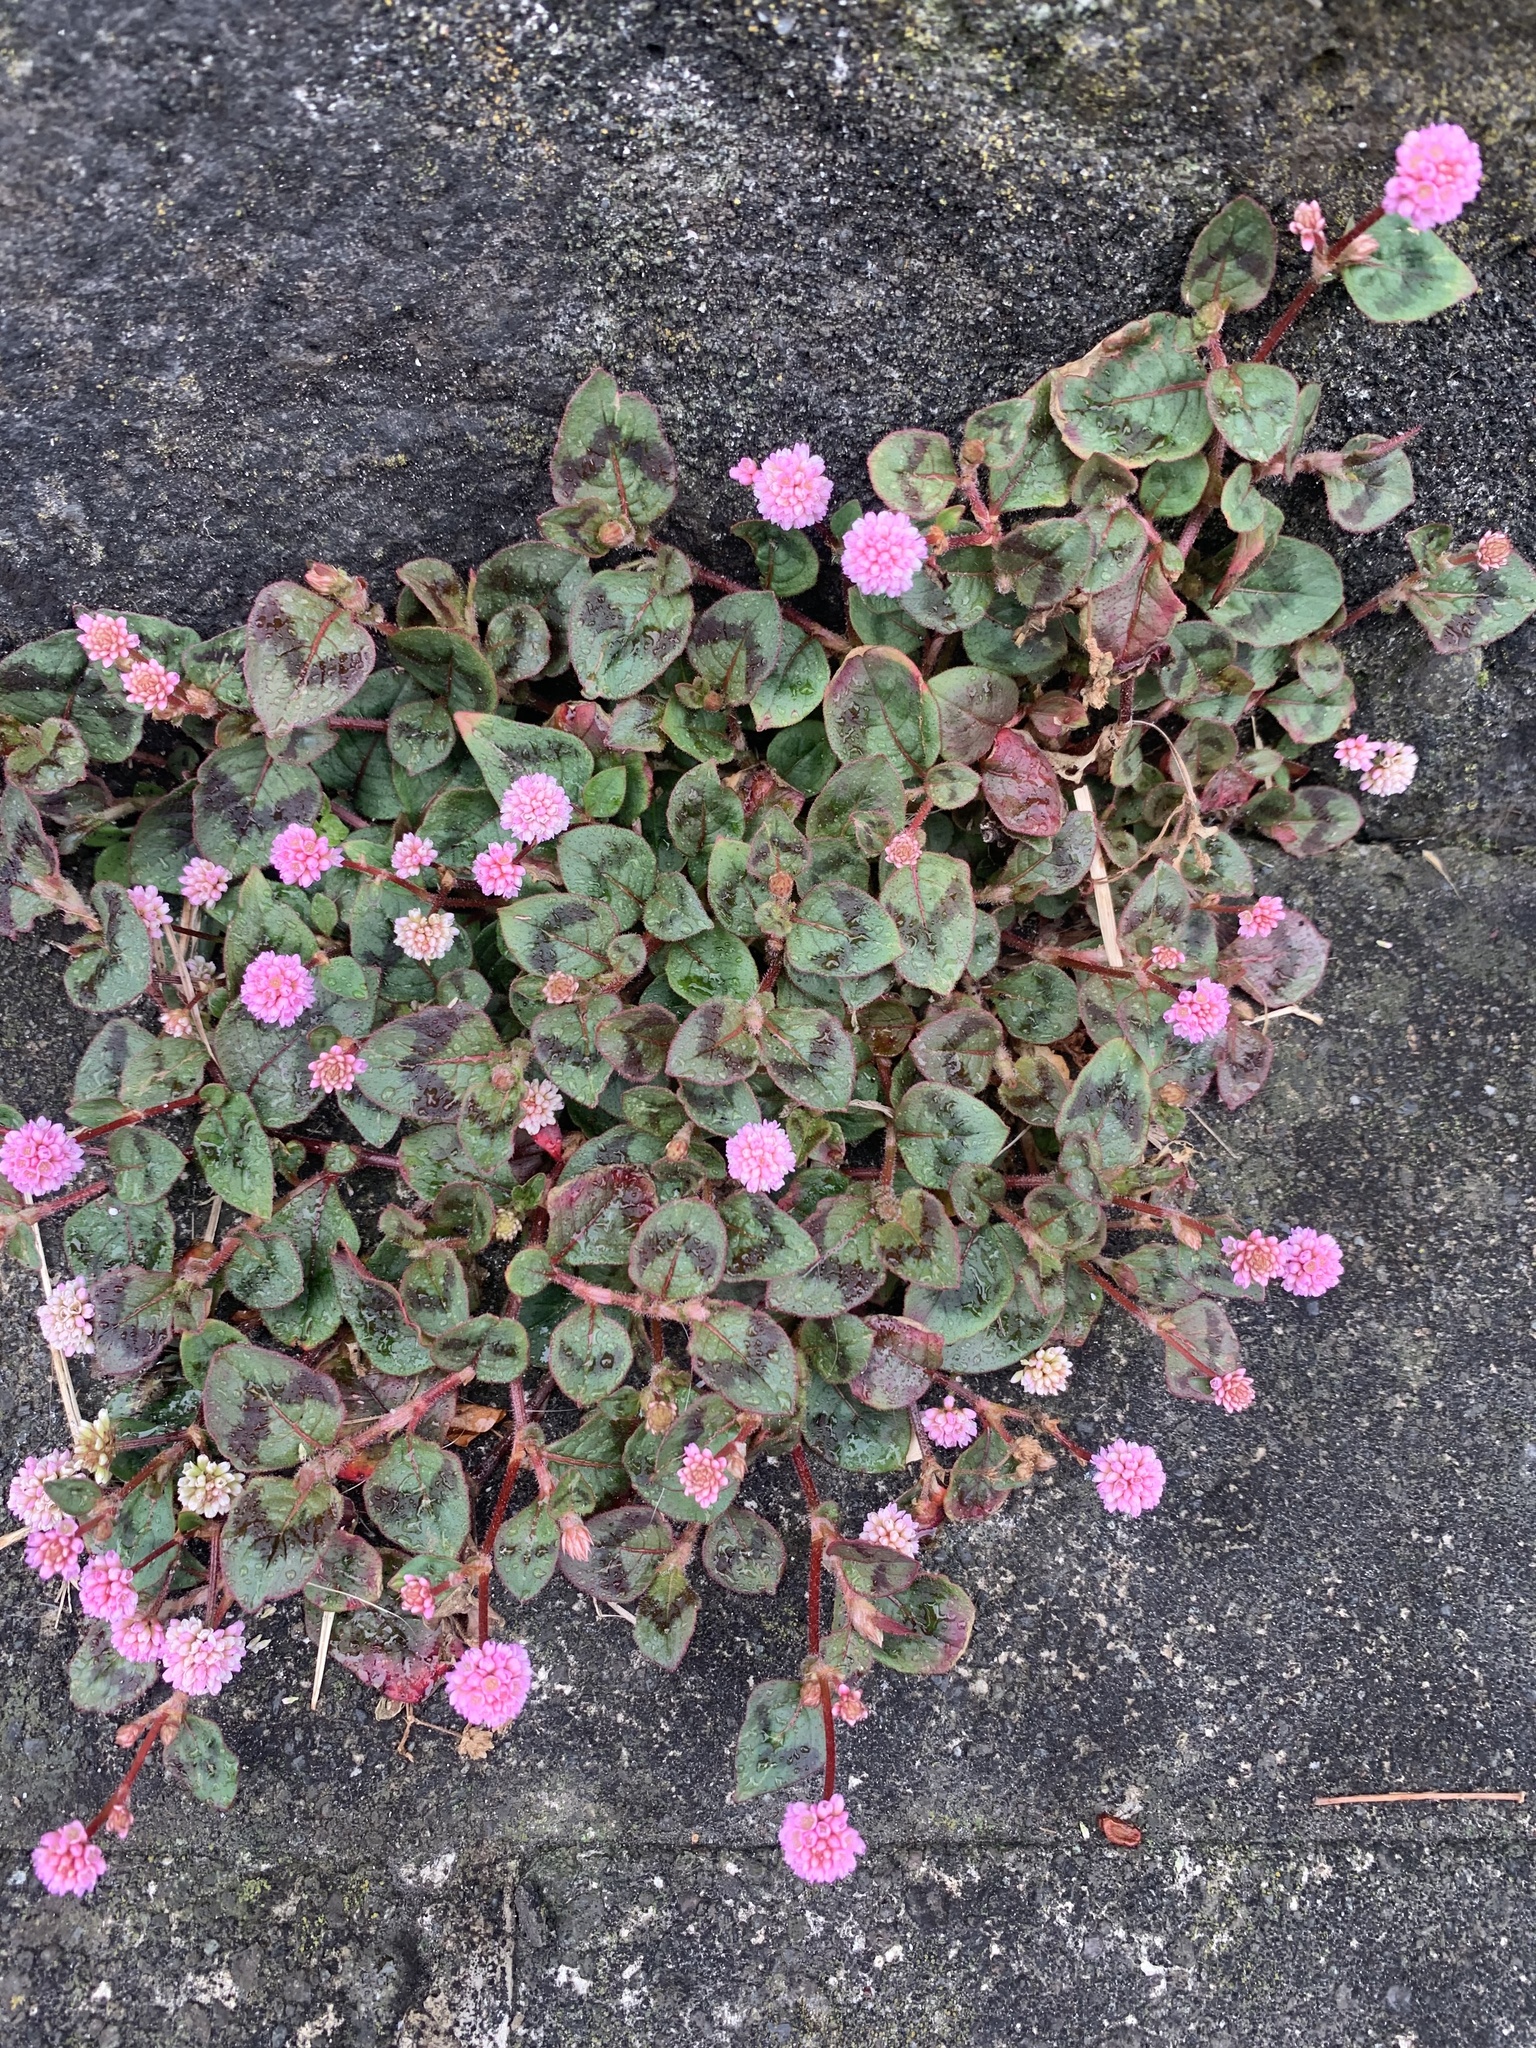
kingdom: Plantae
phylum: Tracheophyta
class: Magnoliopsida
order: Caryophyllales
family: Polygonaceae
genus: Persicaria
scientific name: Persicaria capitata
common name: Pinkhead smartweed
